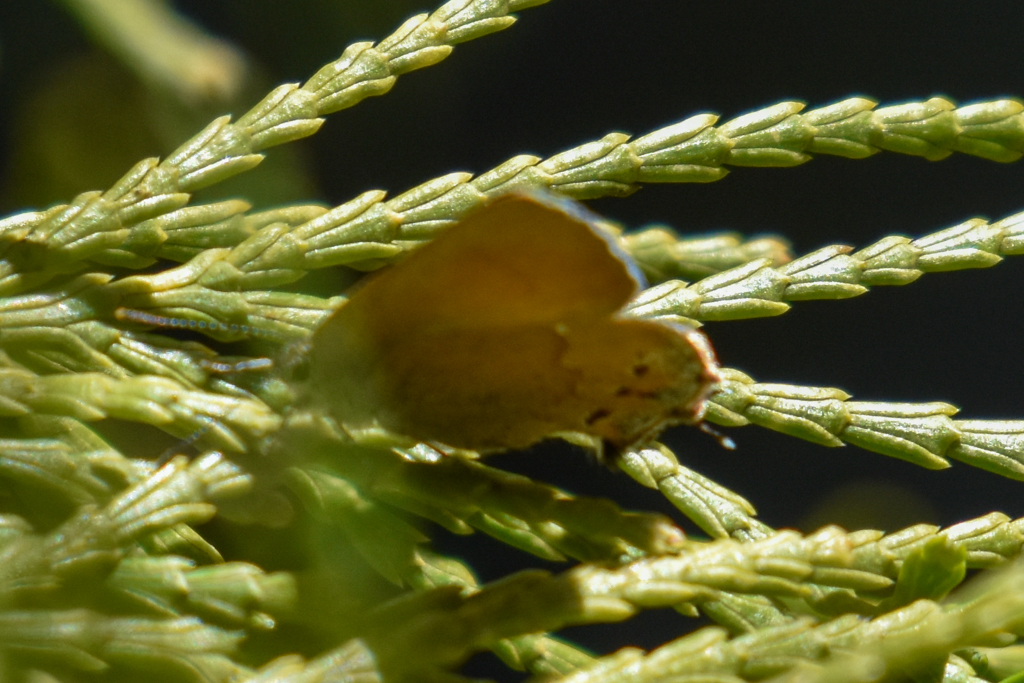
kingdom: Animalia
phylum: Arthropoda
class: Insecta
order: Lepidoptera
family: Lycaenidae
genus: Mitoura
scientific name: Mitoura gryneus
